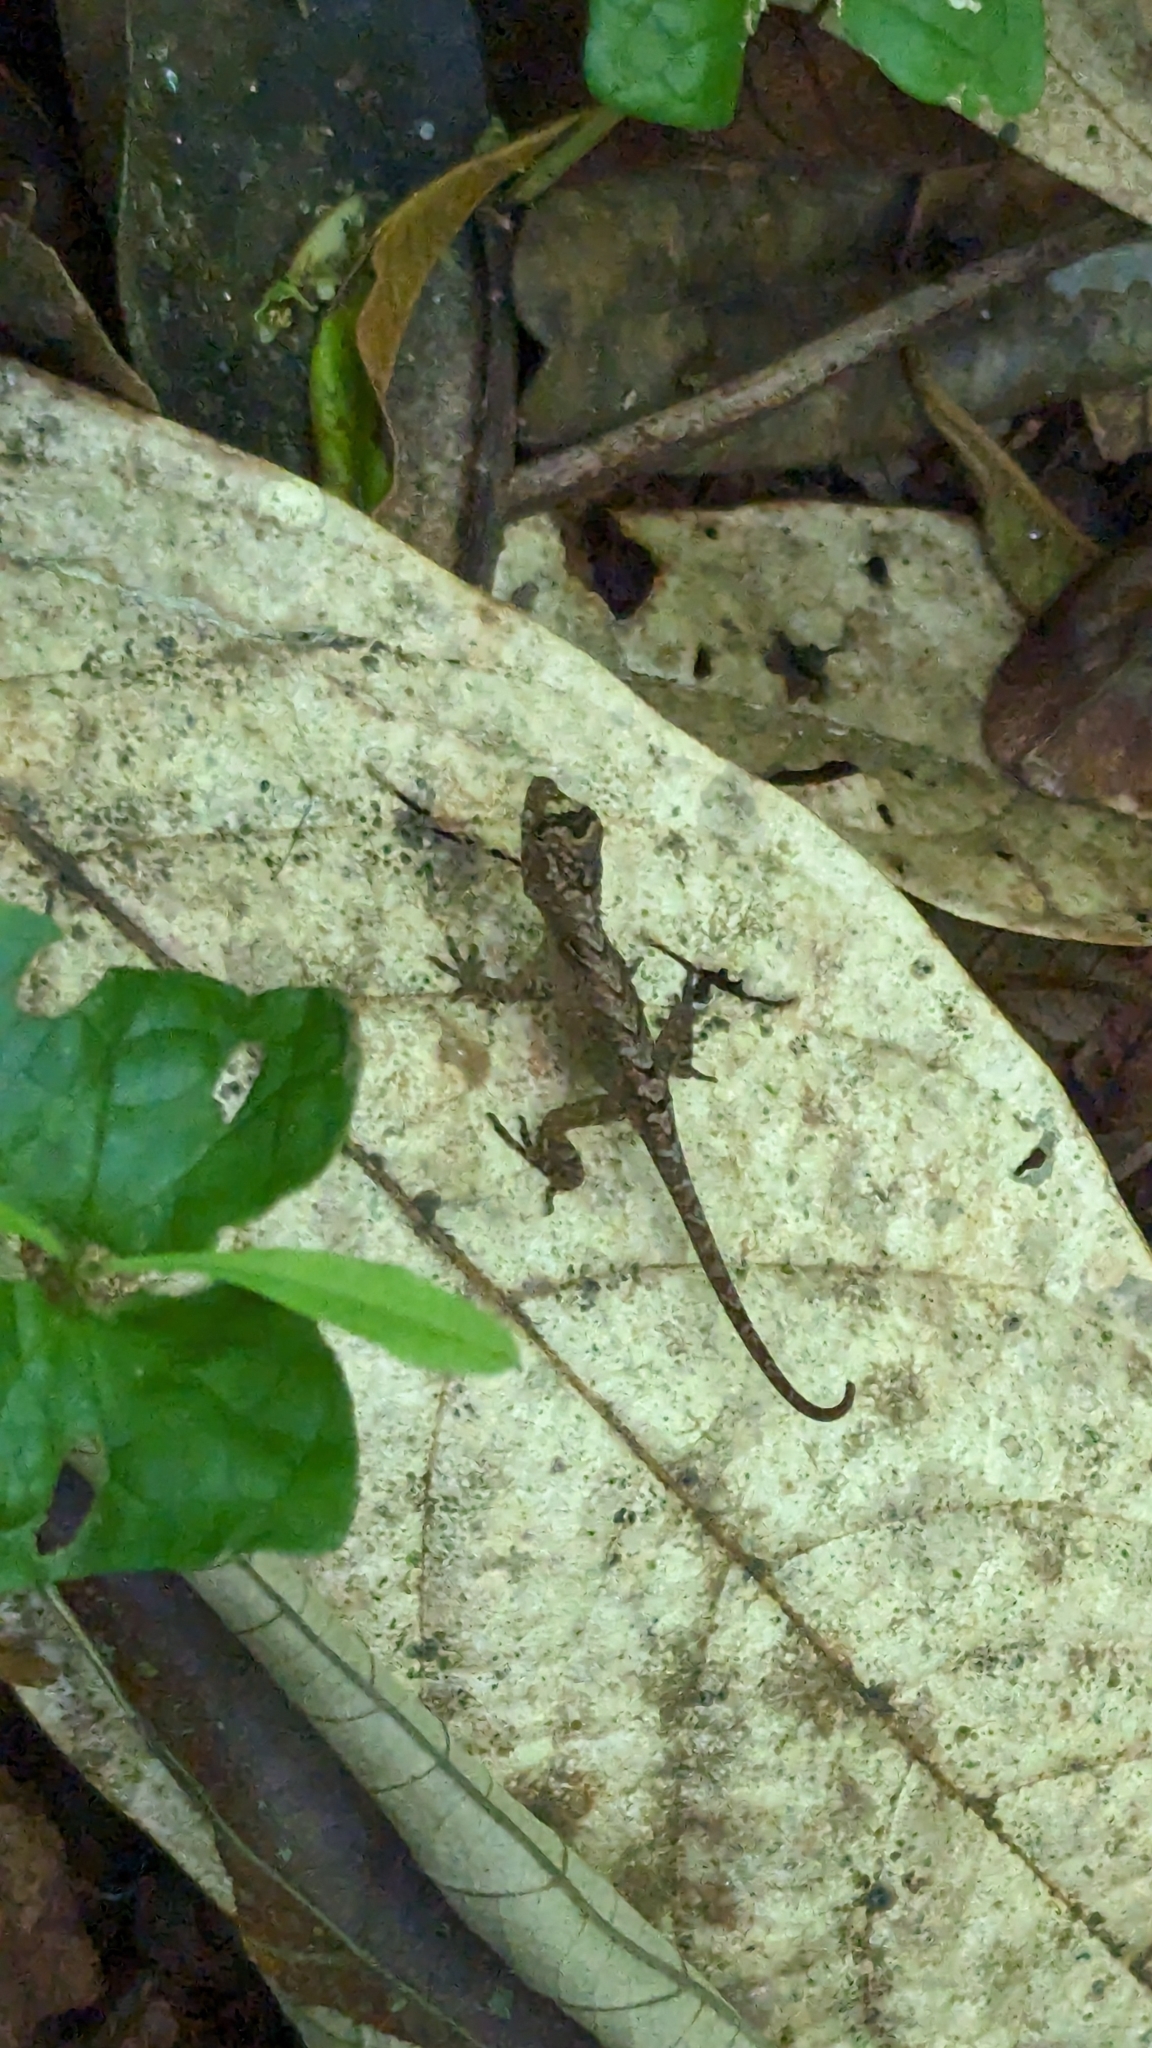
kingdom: Animalia
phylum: Chordata
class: Squamata
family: Dactyloidae
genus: Anolis
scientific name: Anolis humilis
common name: Humble anole
